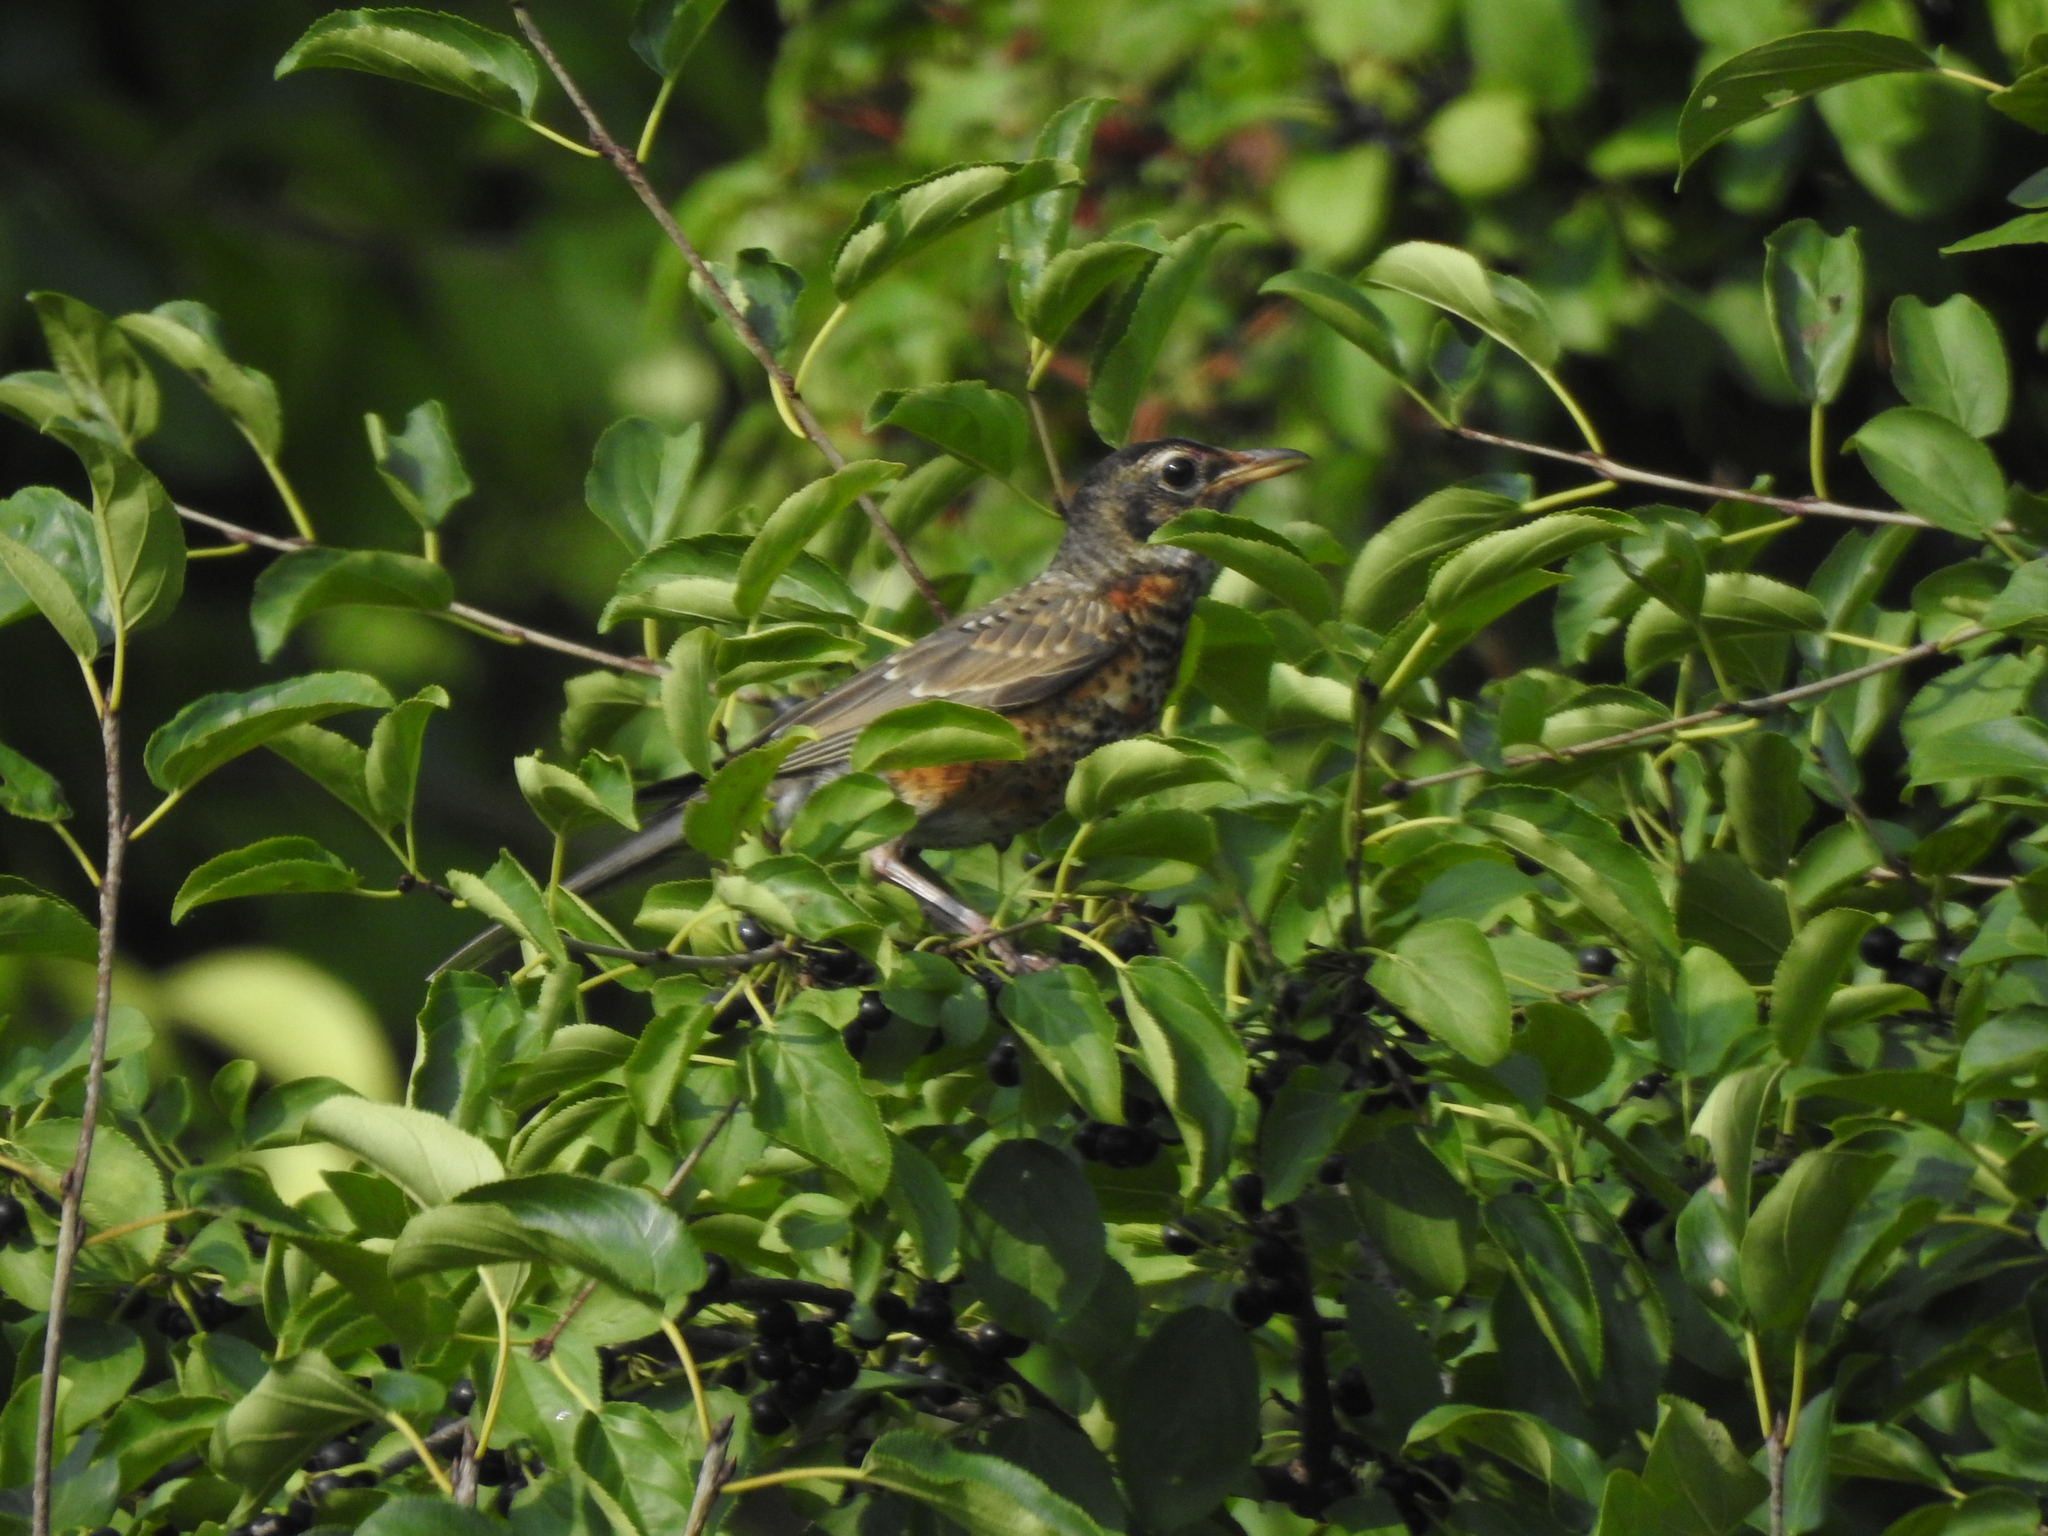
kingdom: Animalia
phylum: Chordata
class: Aves
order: Passeriformes
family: Turdidae
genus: Turdus
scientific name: Turdus migratorius
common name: American robin
